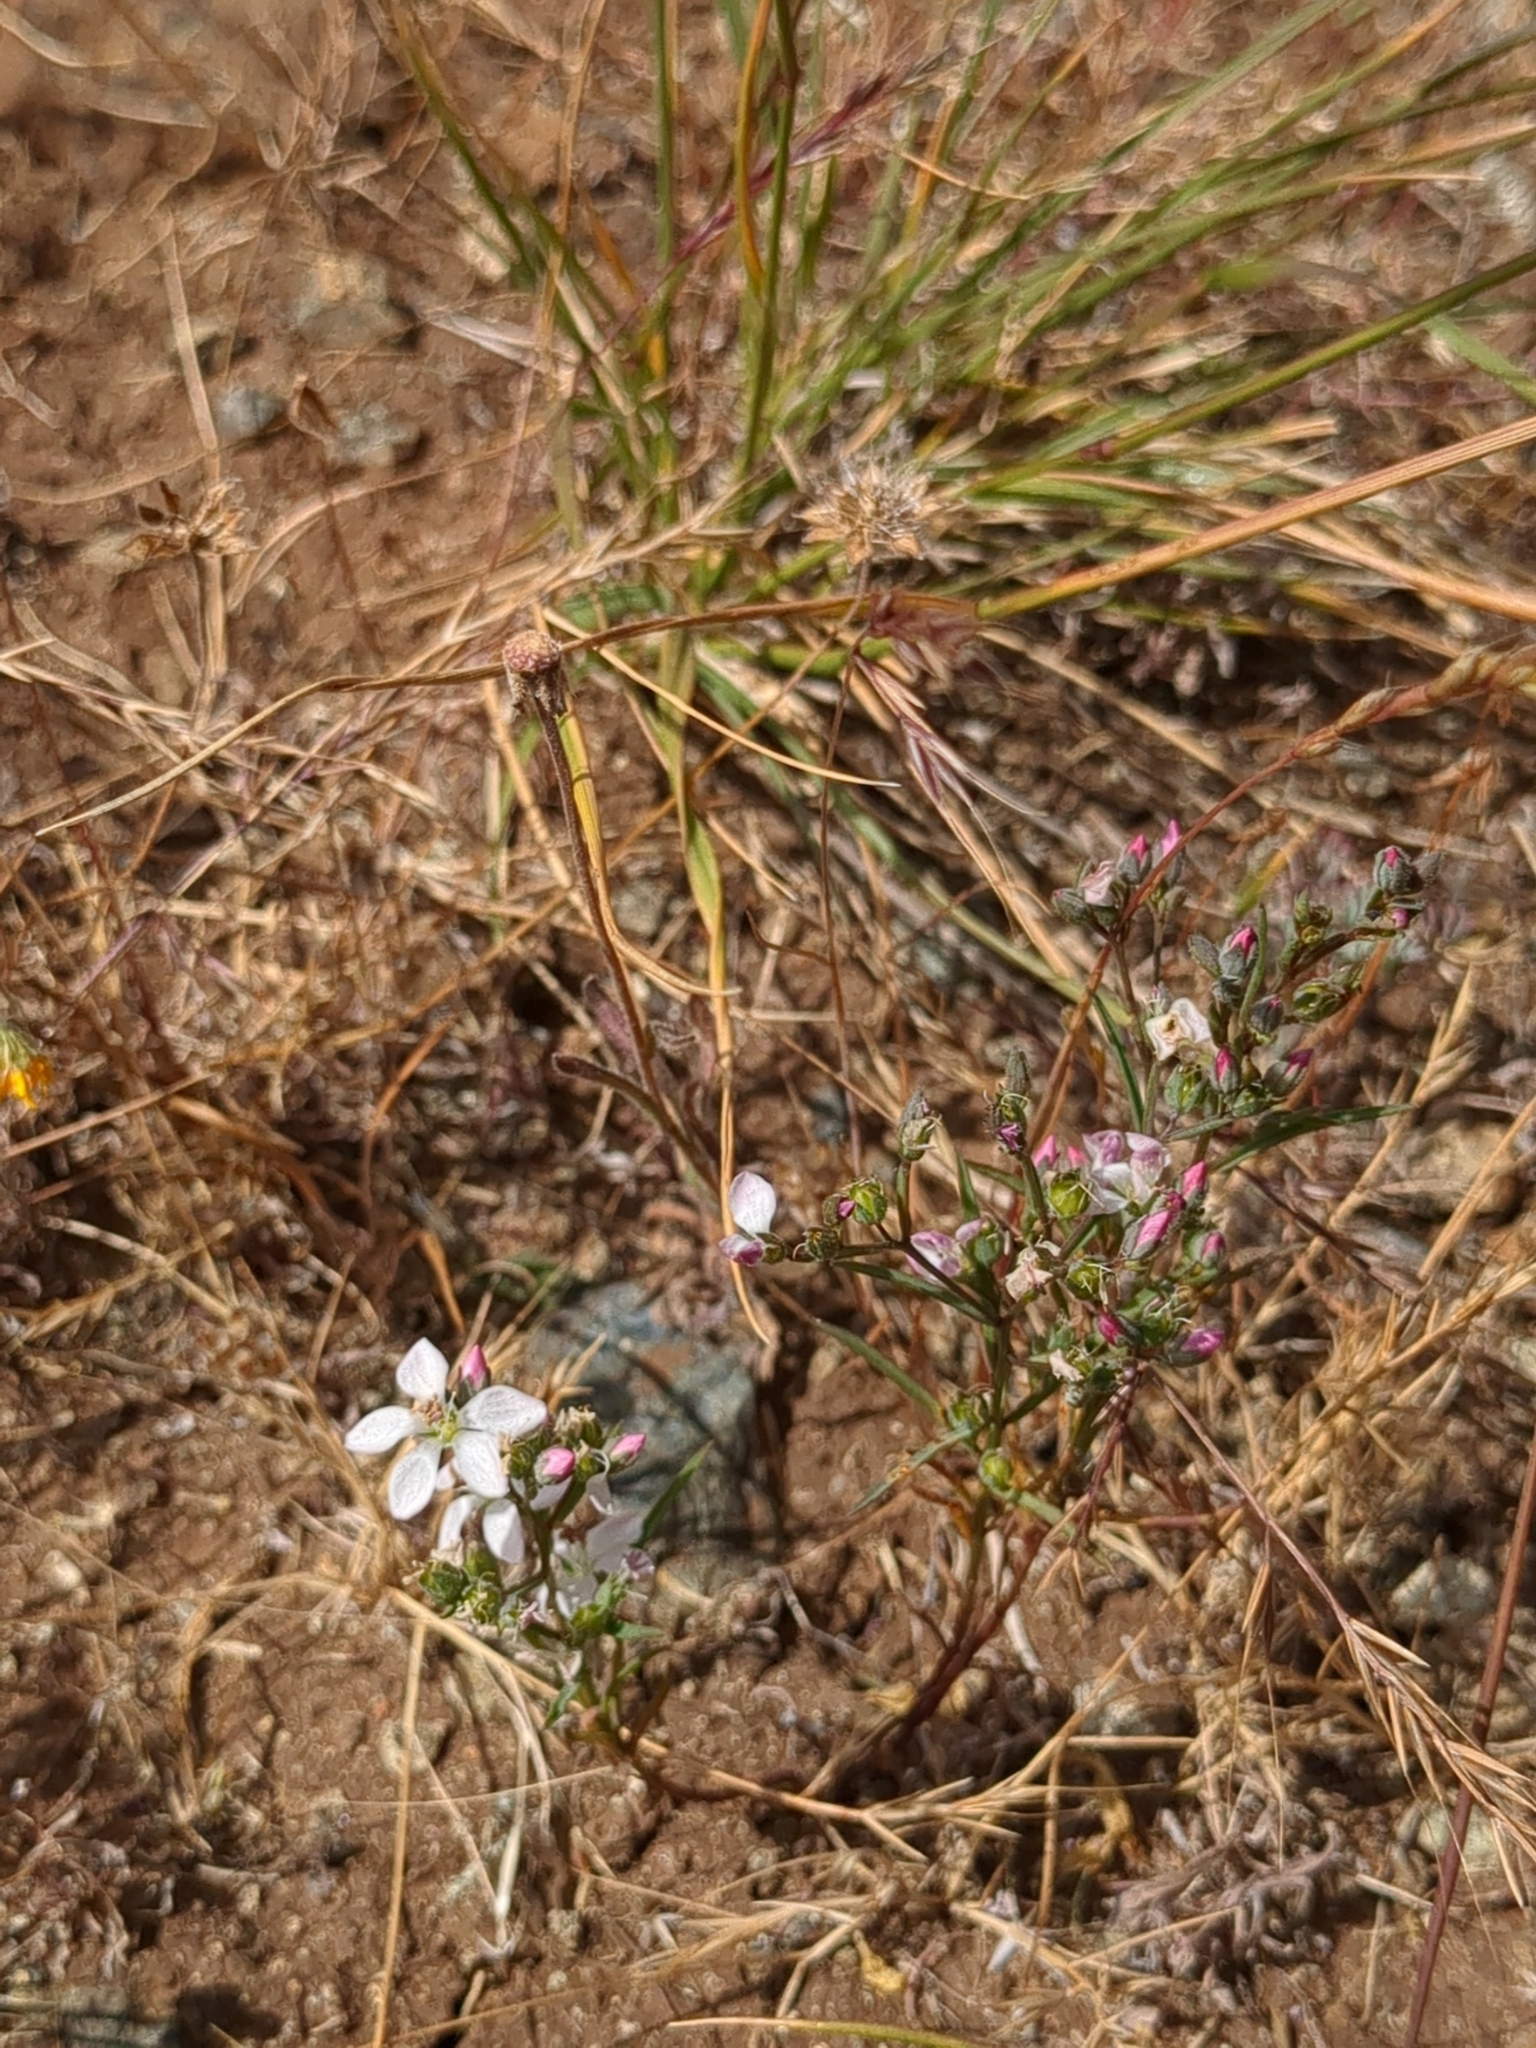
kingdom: Plantae
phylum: Tracheophyta
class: Magnoliopsida
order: Malpighiales
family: Linaceae
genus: Hesperolinon
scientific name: Hesperolinon congestum
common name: Marin dwarf-flax
